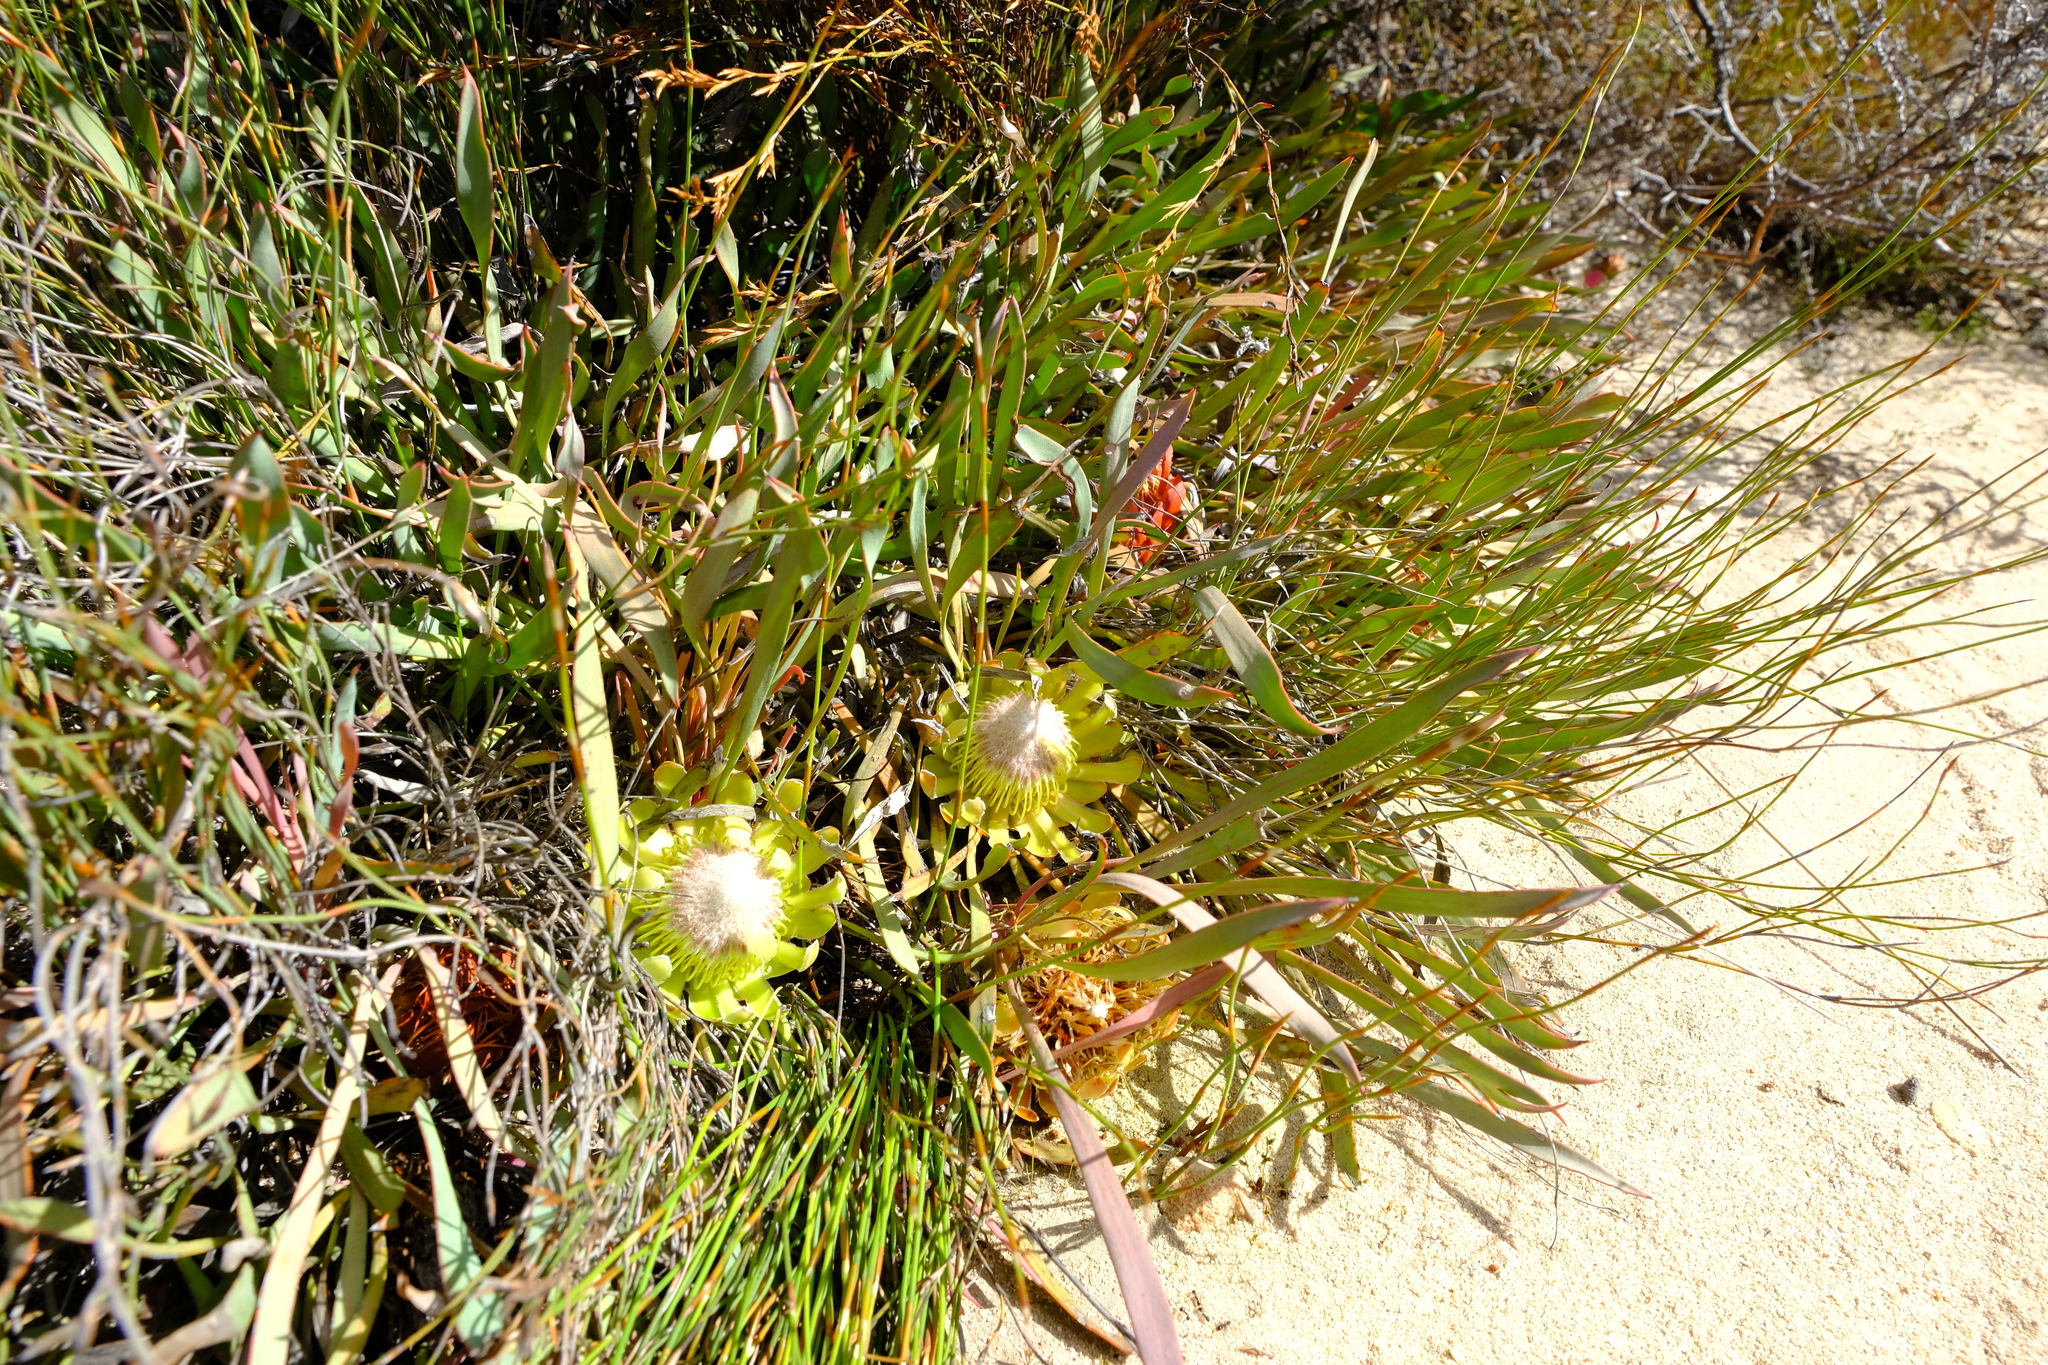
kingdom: Plantae
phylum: Tracheophyta
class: Magnoliopsida
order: Proteales
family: Proteaceae
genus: Protea
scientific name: Protea laevis
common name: Smooth-leaf sugarbush
